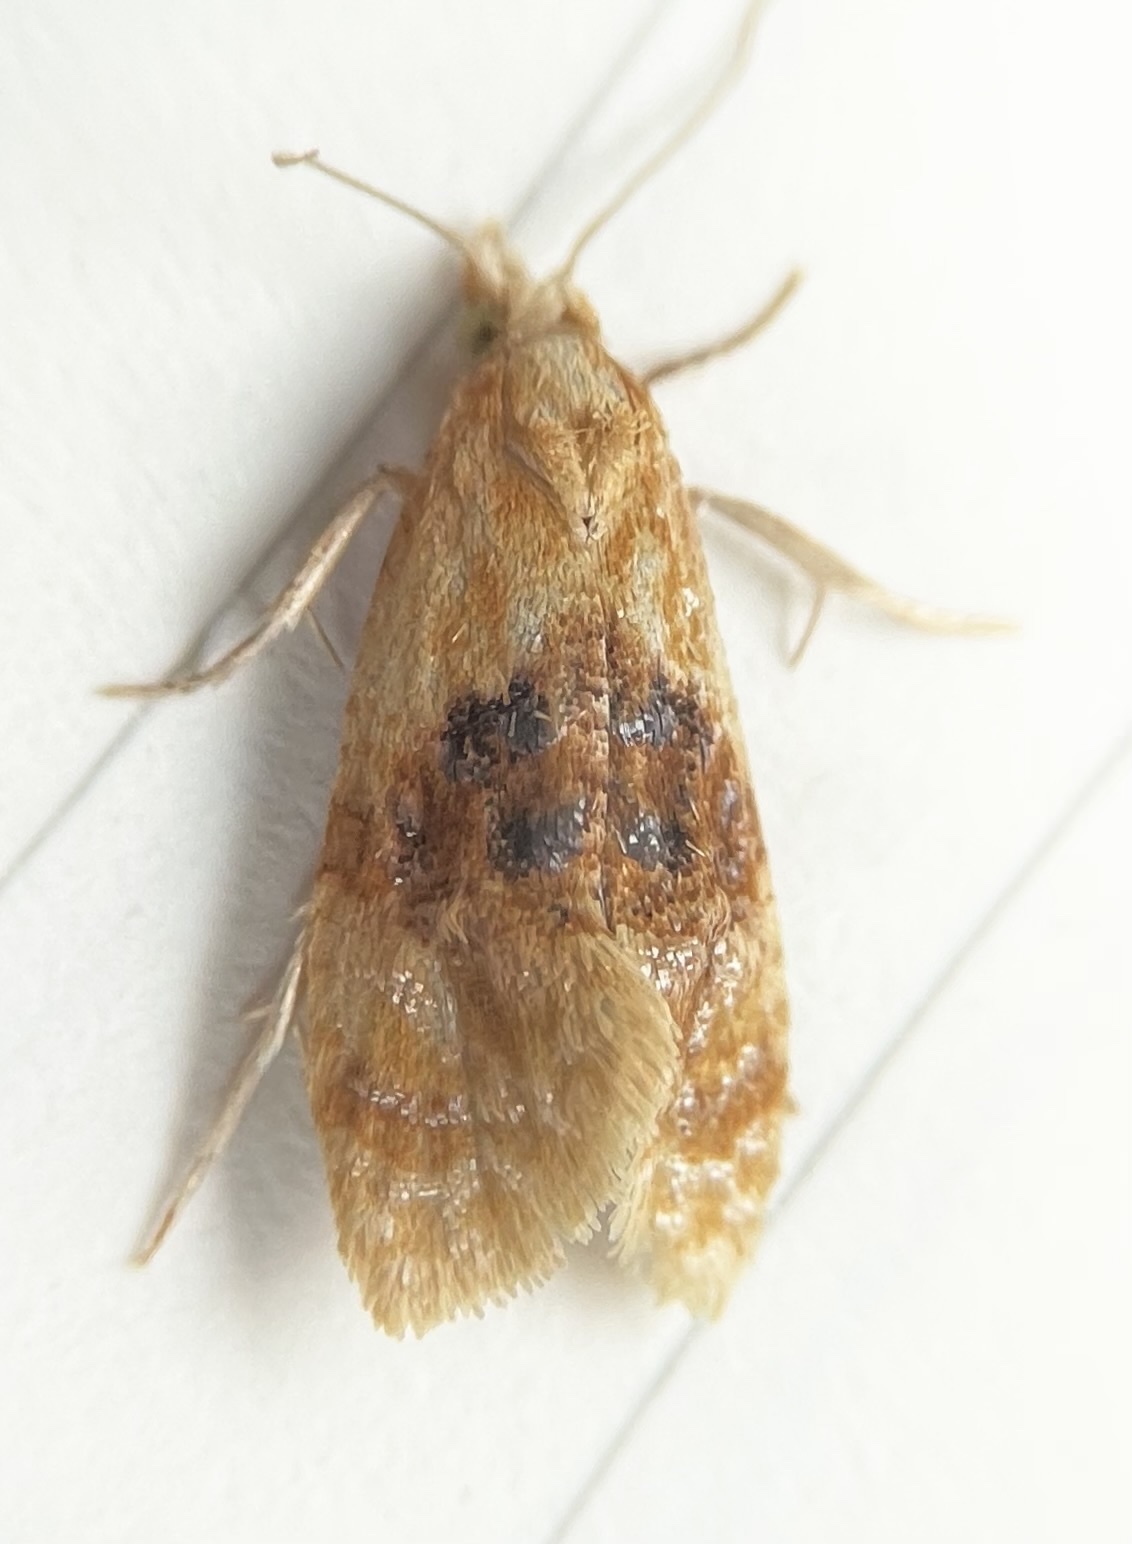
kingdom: Animalia
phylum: Arthropoda
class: Insecta
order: Lepidoptera
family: Tortricidae
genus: Cochylis
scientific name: Cochylis Cochylichroa hospes
